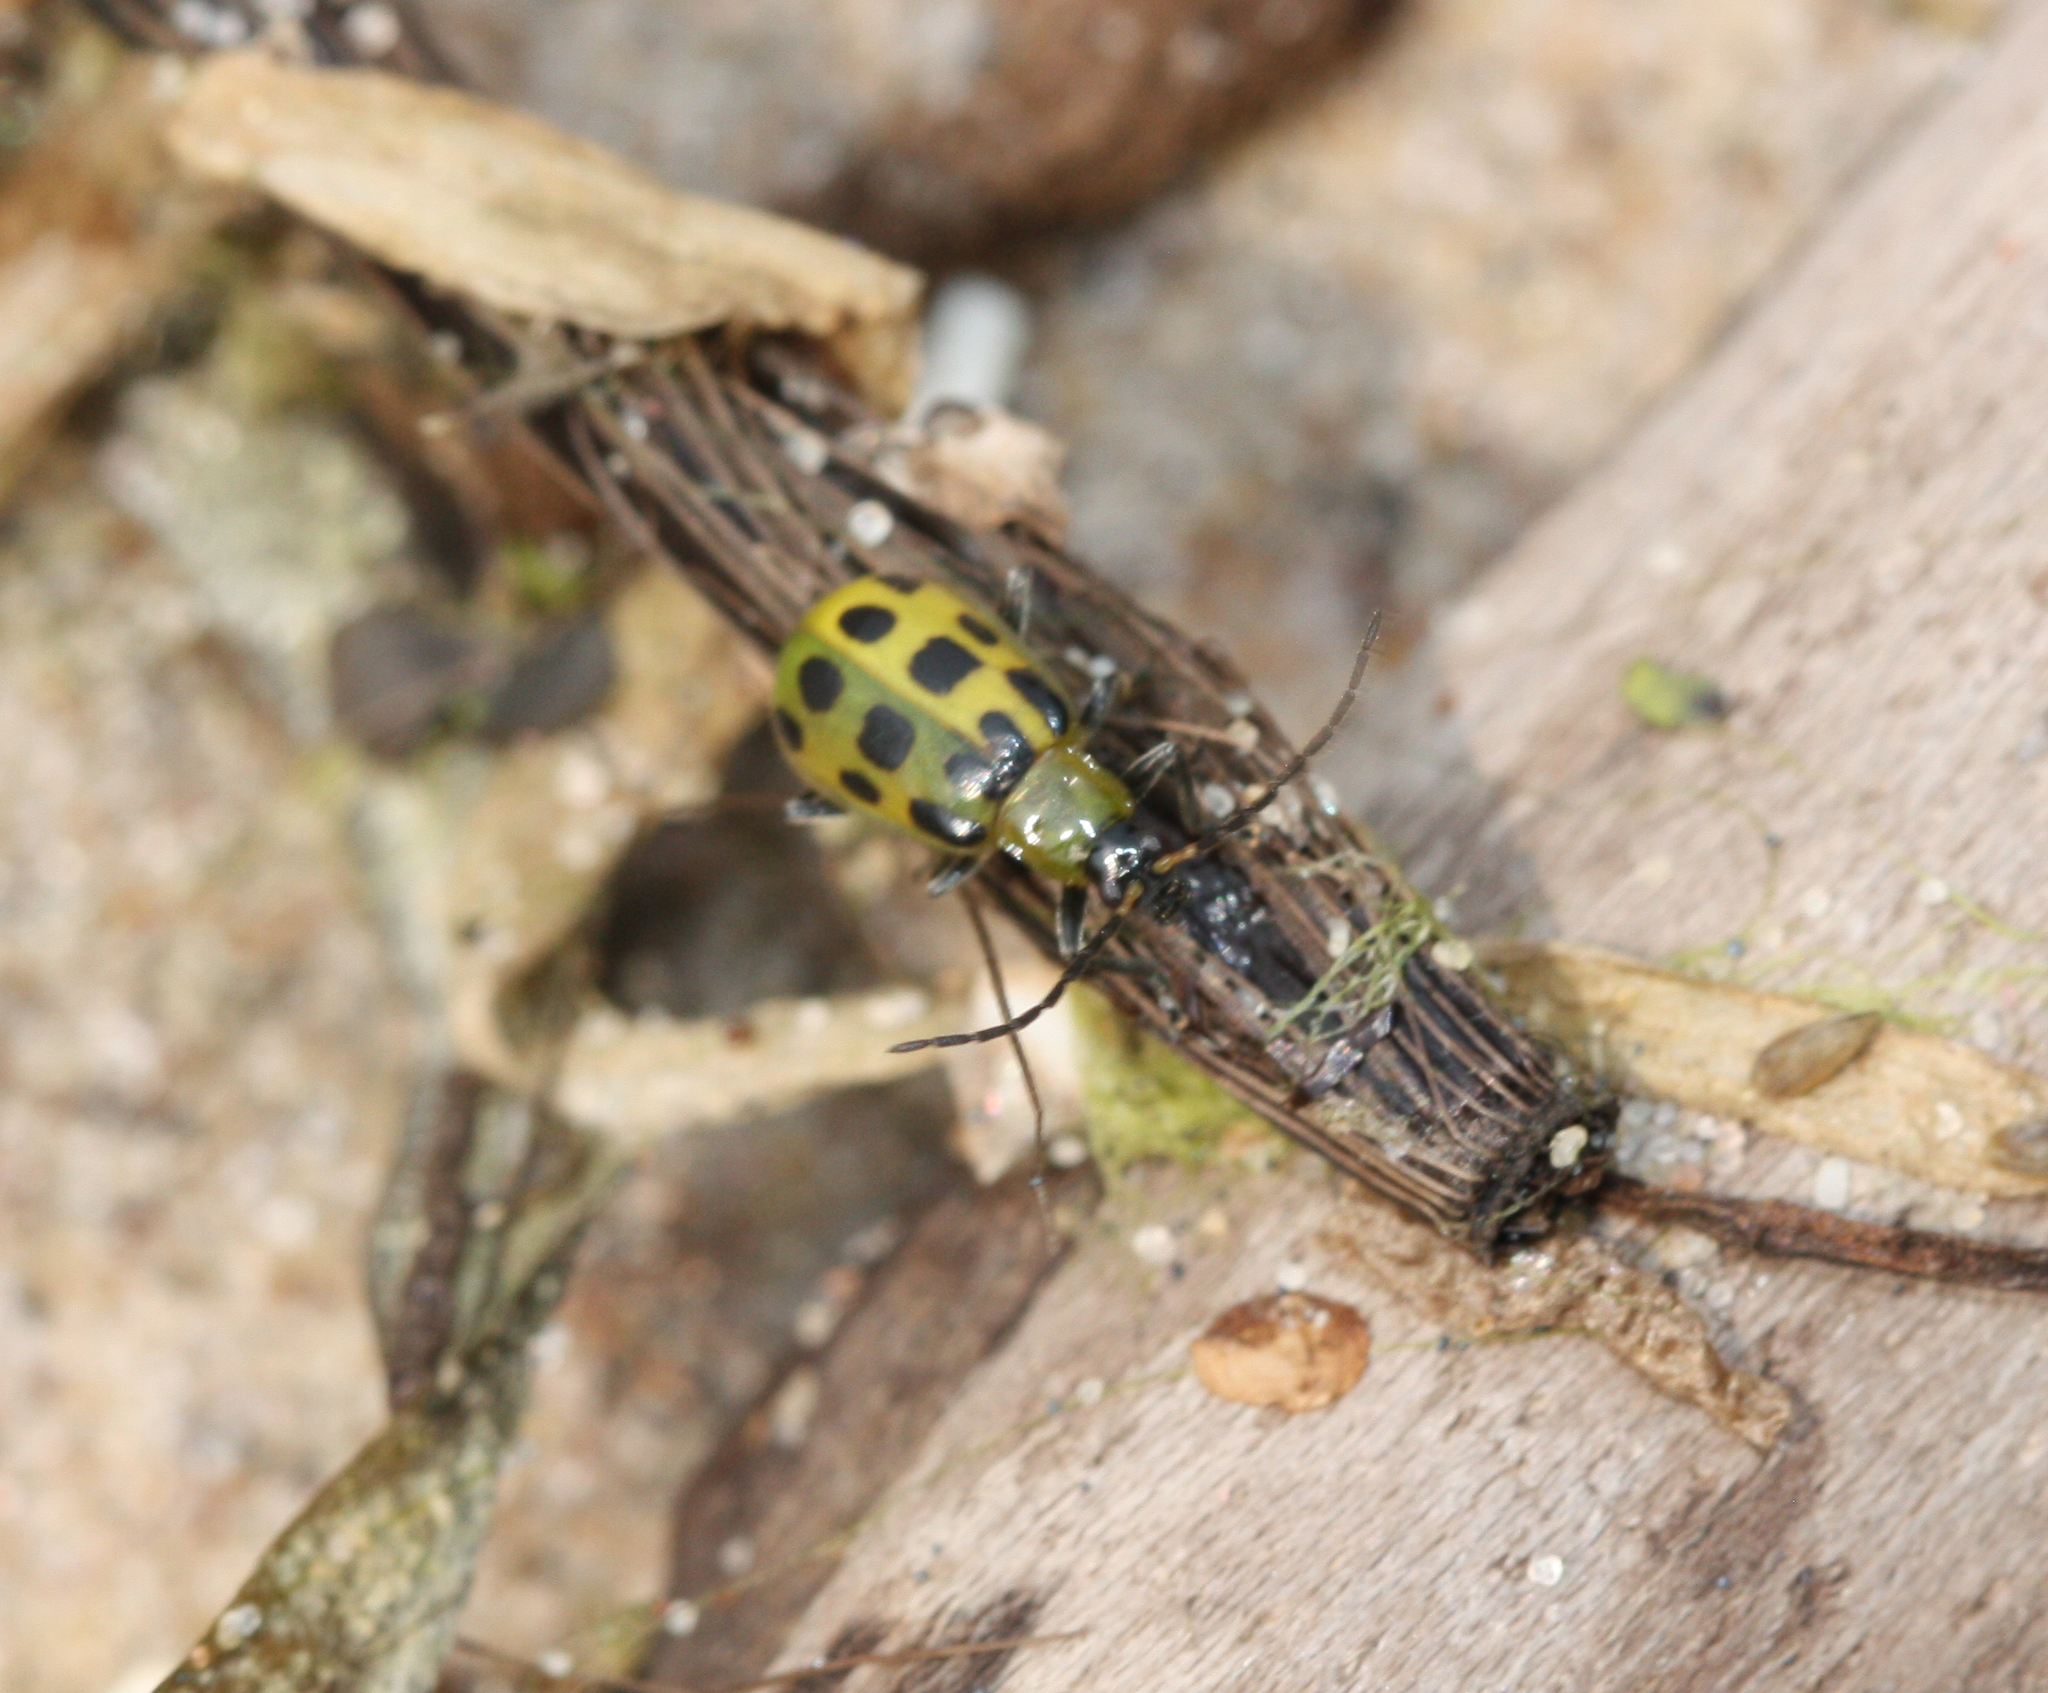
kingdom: Animalia
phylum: Arthropoda
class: Insecta
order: Coleoptera
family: Chrysomelidae
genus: Diabrotica
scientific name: Diabrotica undecimpunctata
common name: Spotted cucumber beetle
